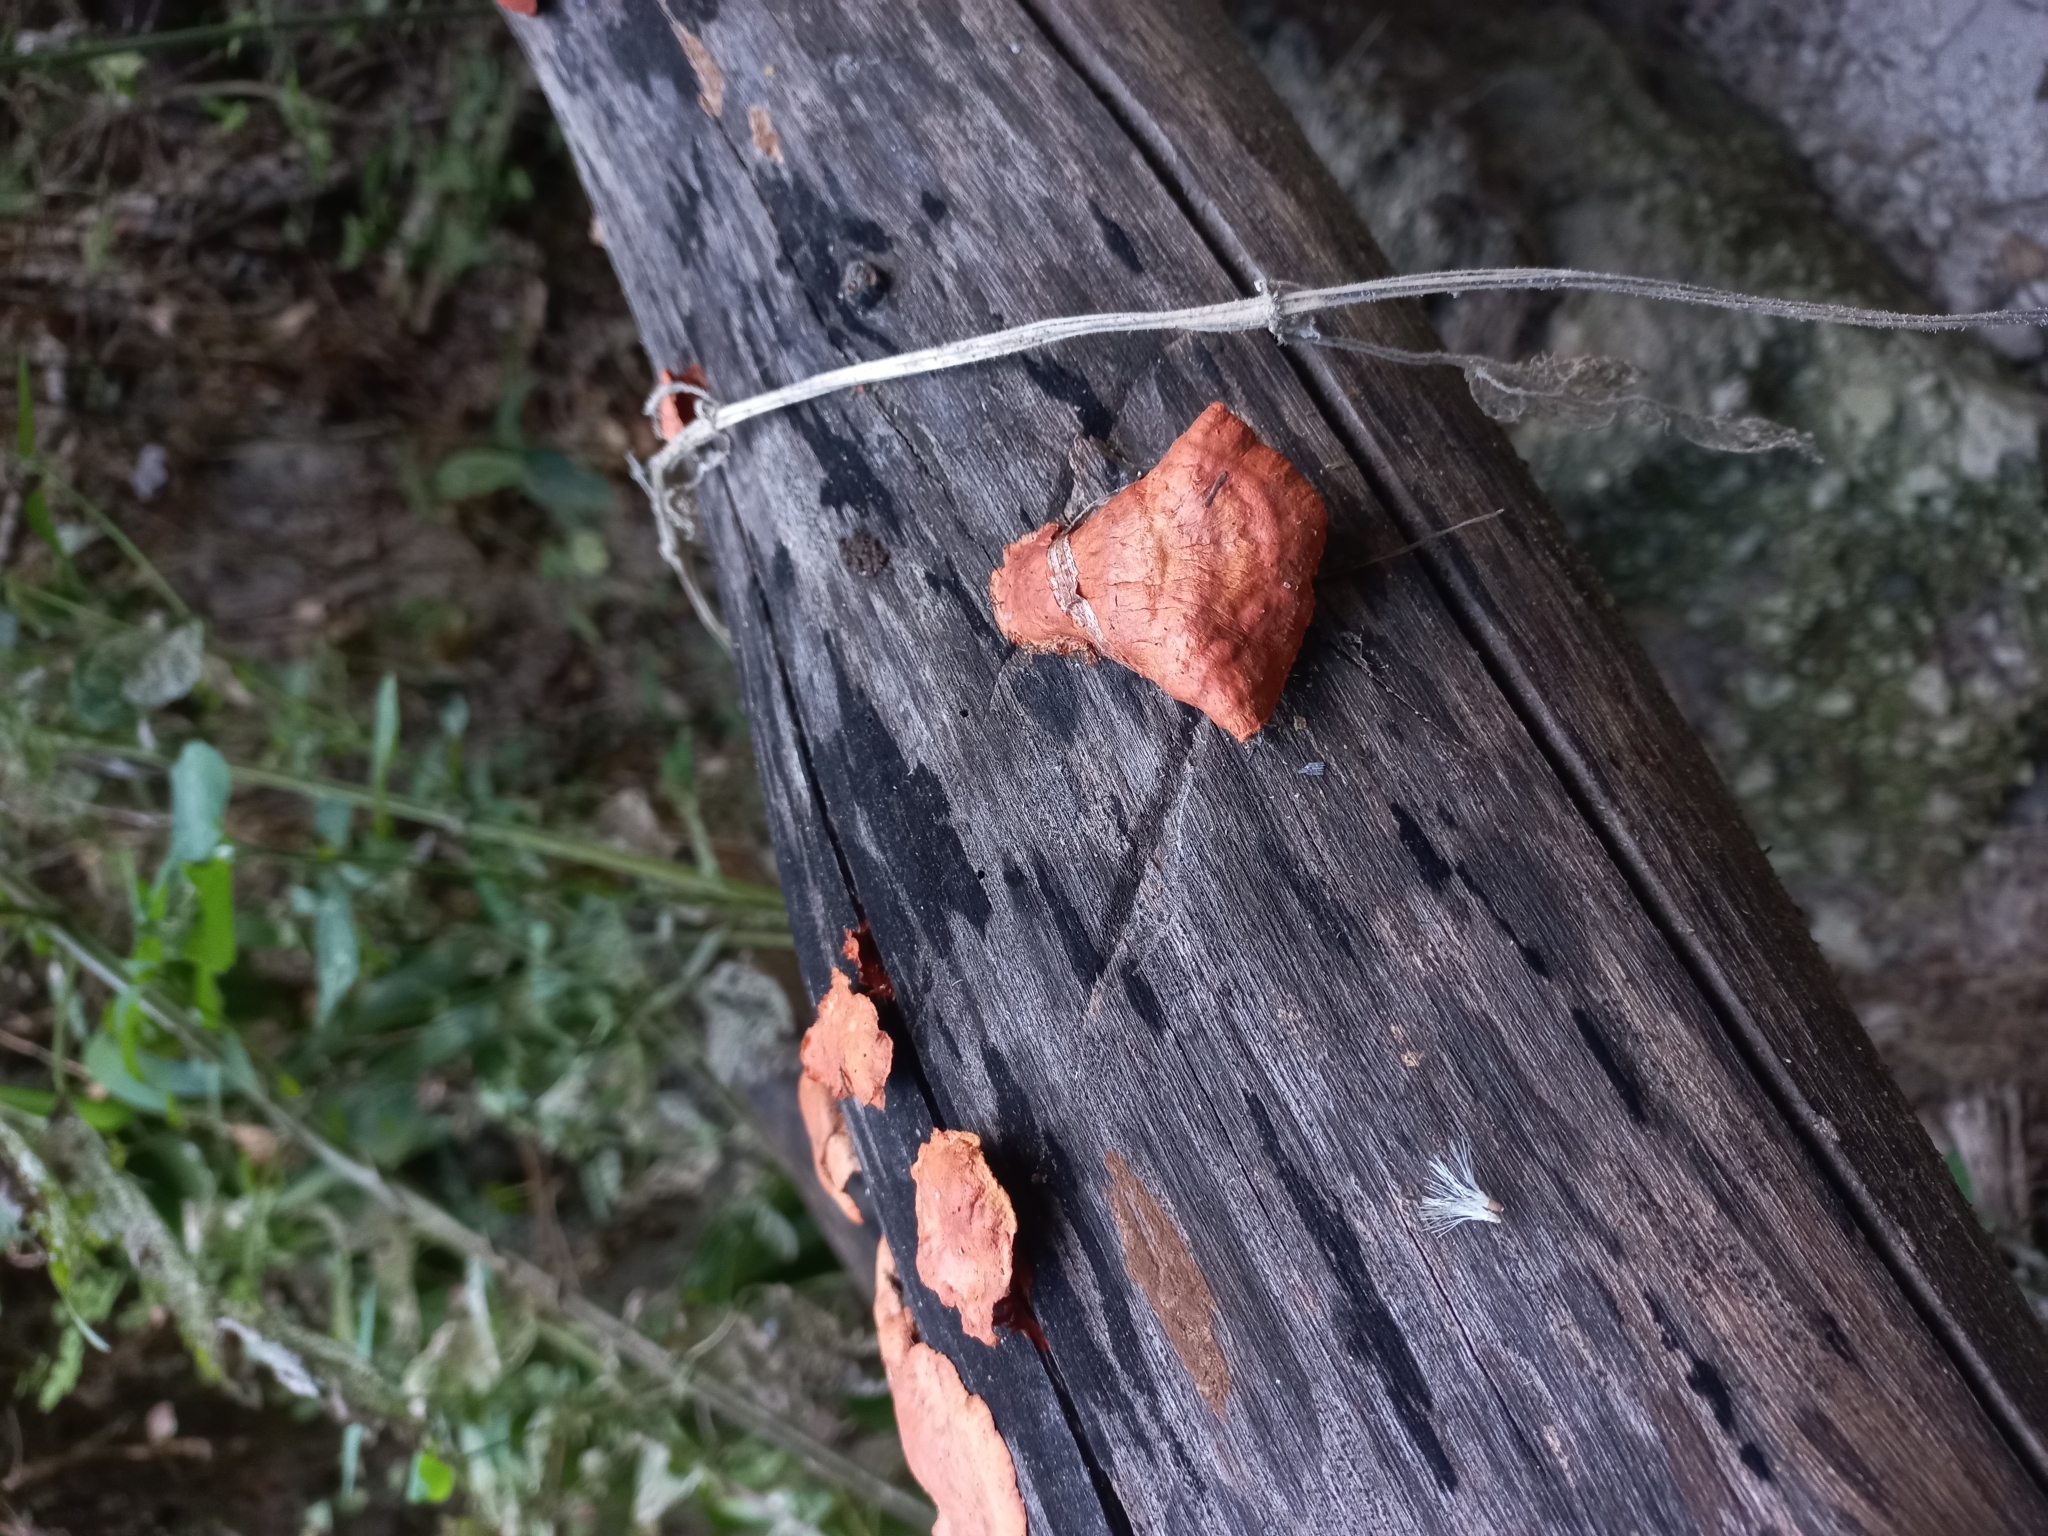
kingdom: Fungi
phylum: Basidiomycota
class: Agaricomycetes
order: Polyporales
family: Polyporaceae
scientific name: Polyporaceae
